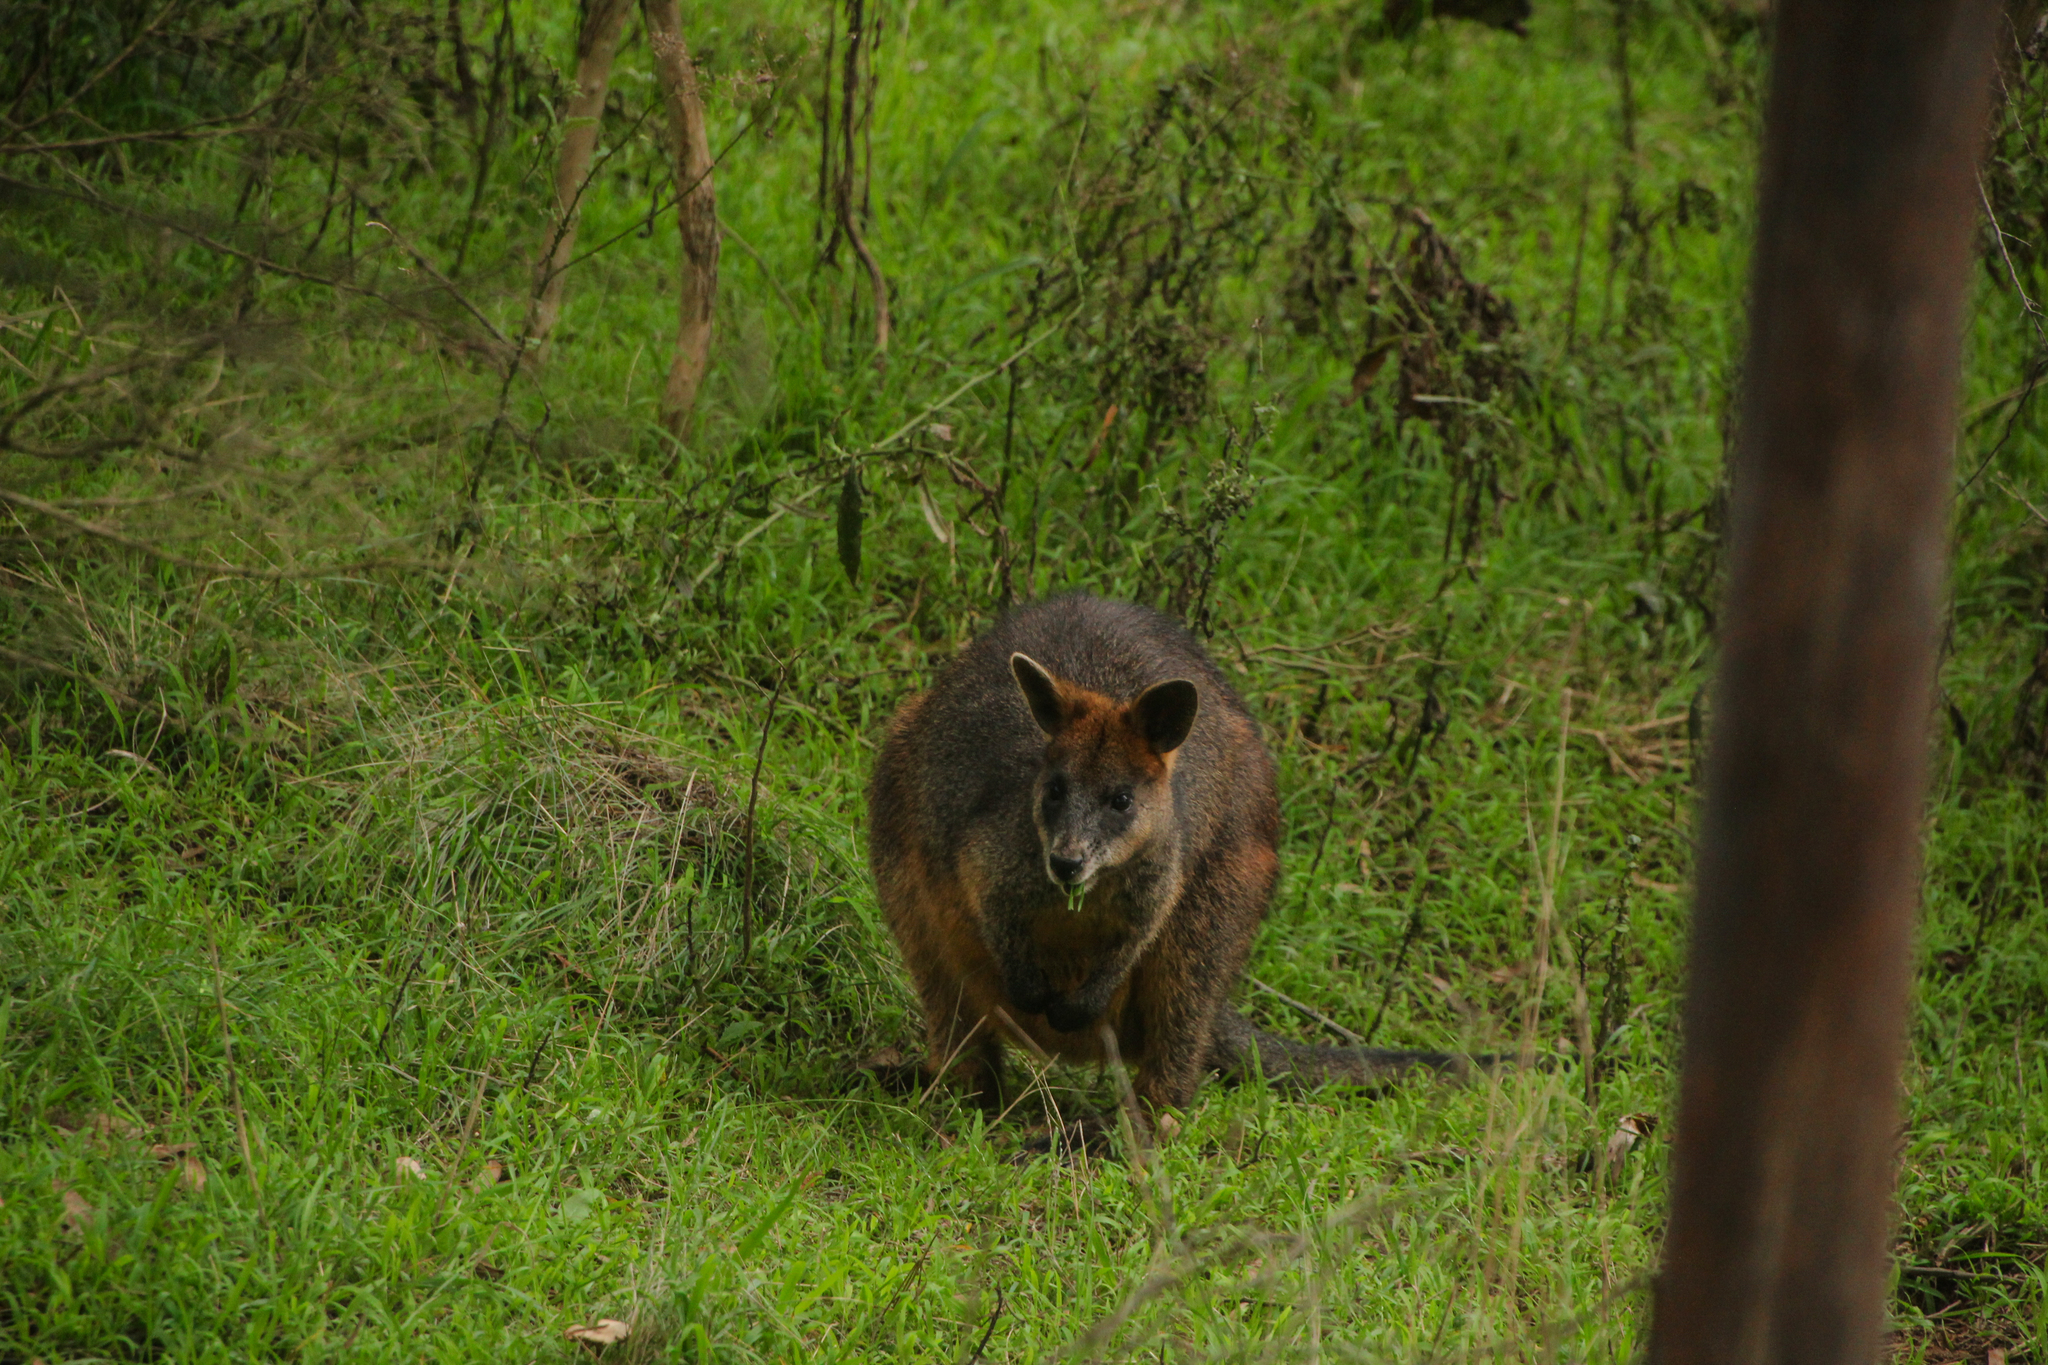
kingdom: Animalia
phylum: Chordata
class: Mammalia
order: Diprotodontia
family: Macropodidae
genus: Wallabia
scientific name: Wallabia bicolor
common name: Swamp wallaby
